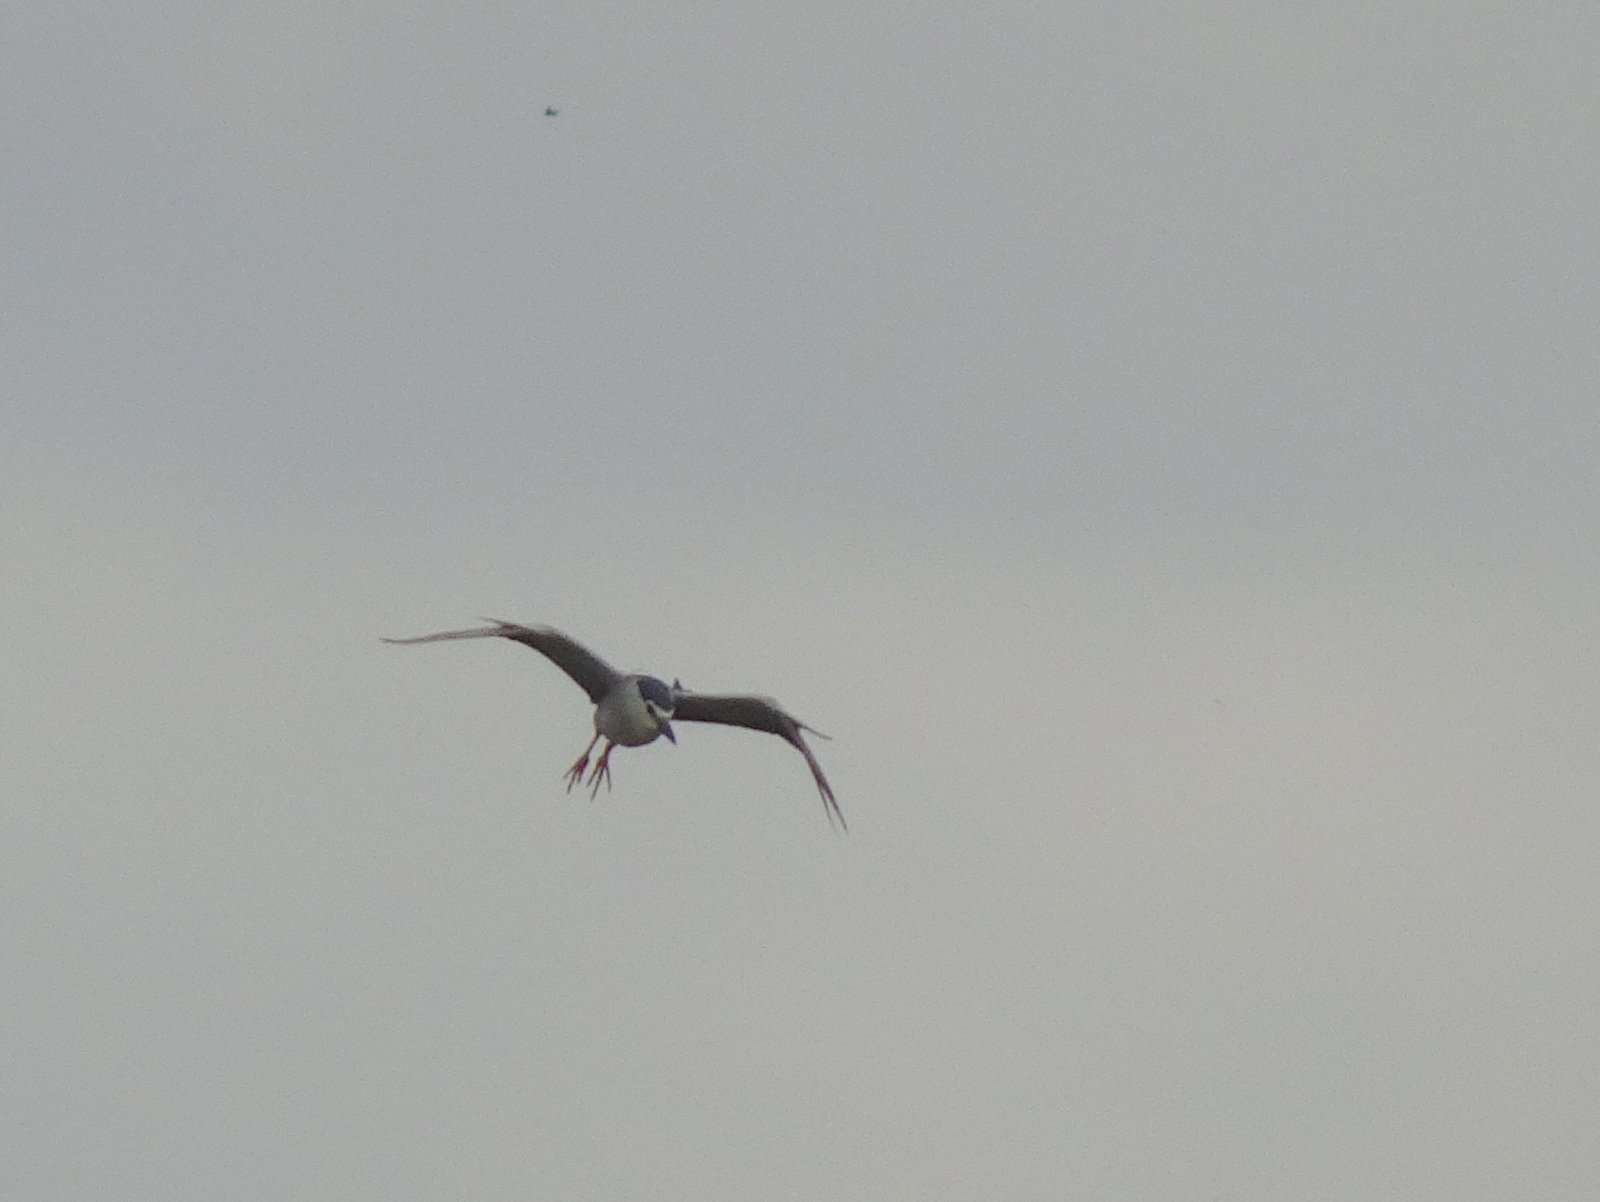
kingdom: Animalia
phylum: Chordata
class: Aves
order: Pelecaniformes
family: Ardeidae
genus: Nycticorax
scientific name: Nycticorax nycticorax
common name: Black-crowned night heron
